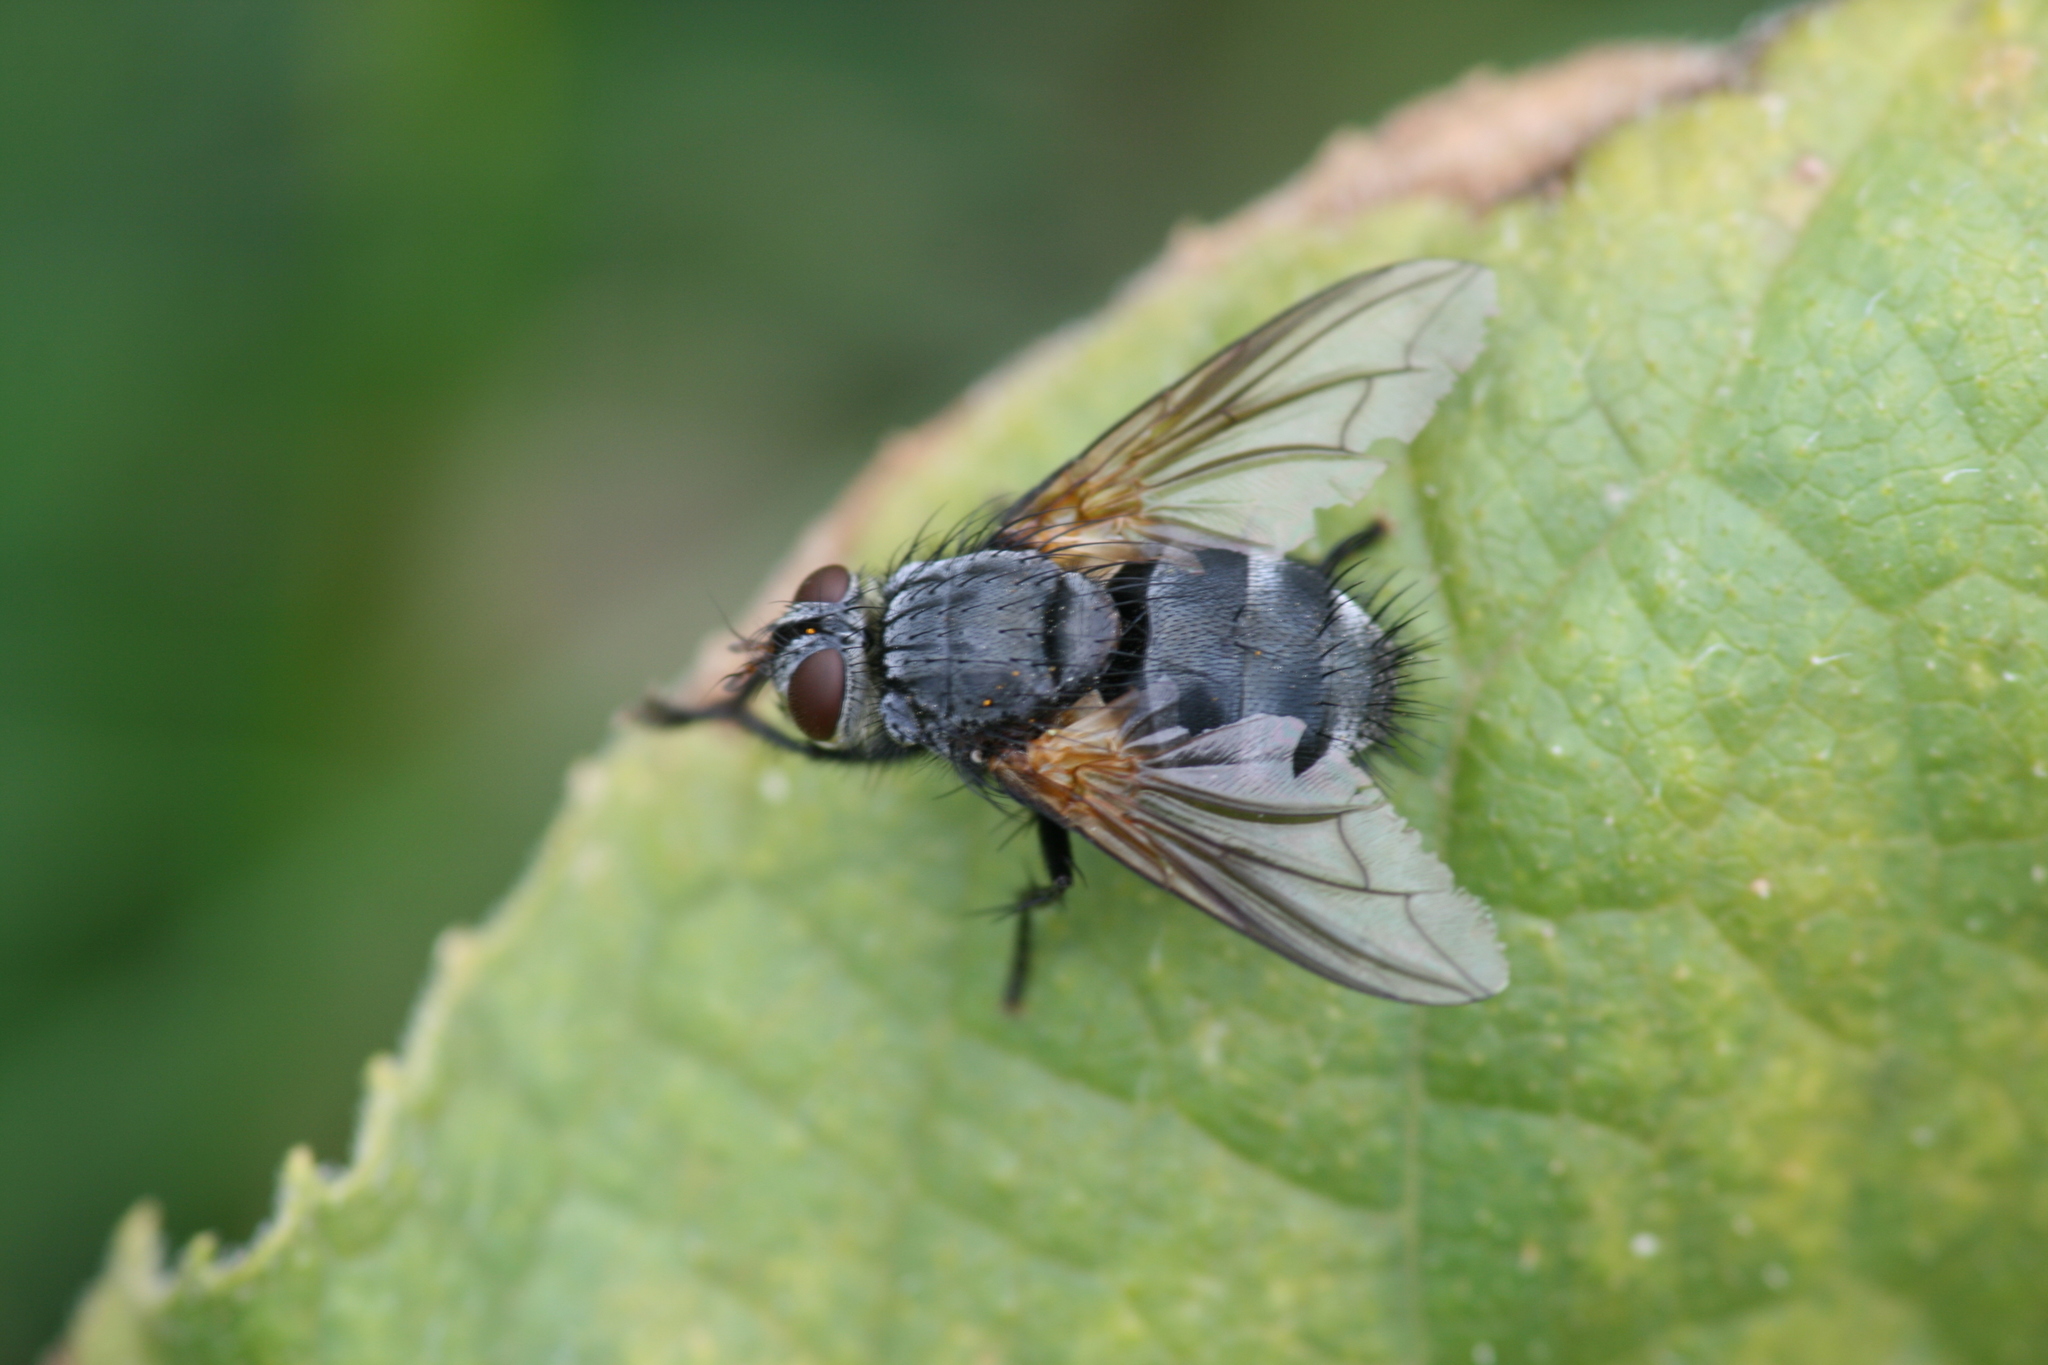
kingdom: Animalia
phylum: Arthropoda
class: Insecta
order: Diptera
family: Tachinidae
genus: Nemoraea
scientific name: Nemoraea pellucida
